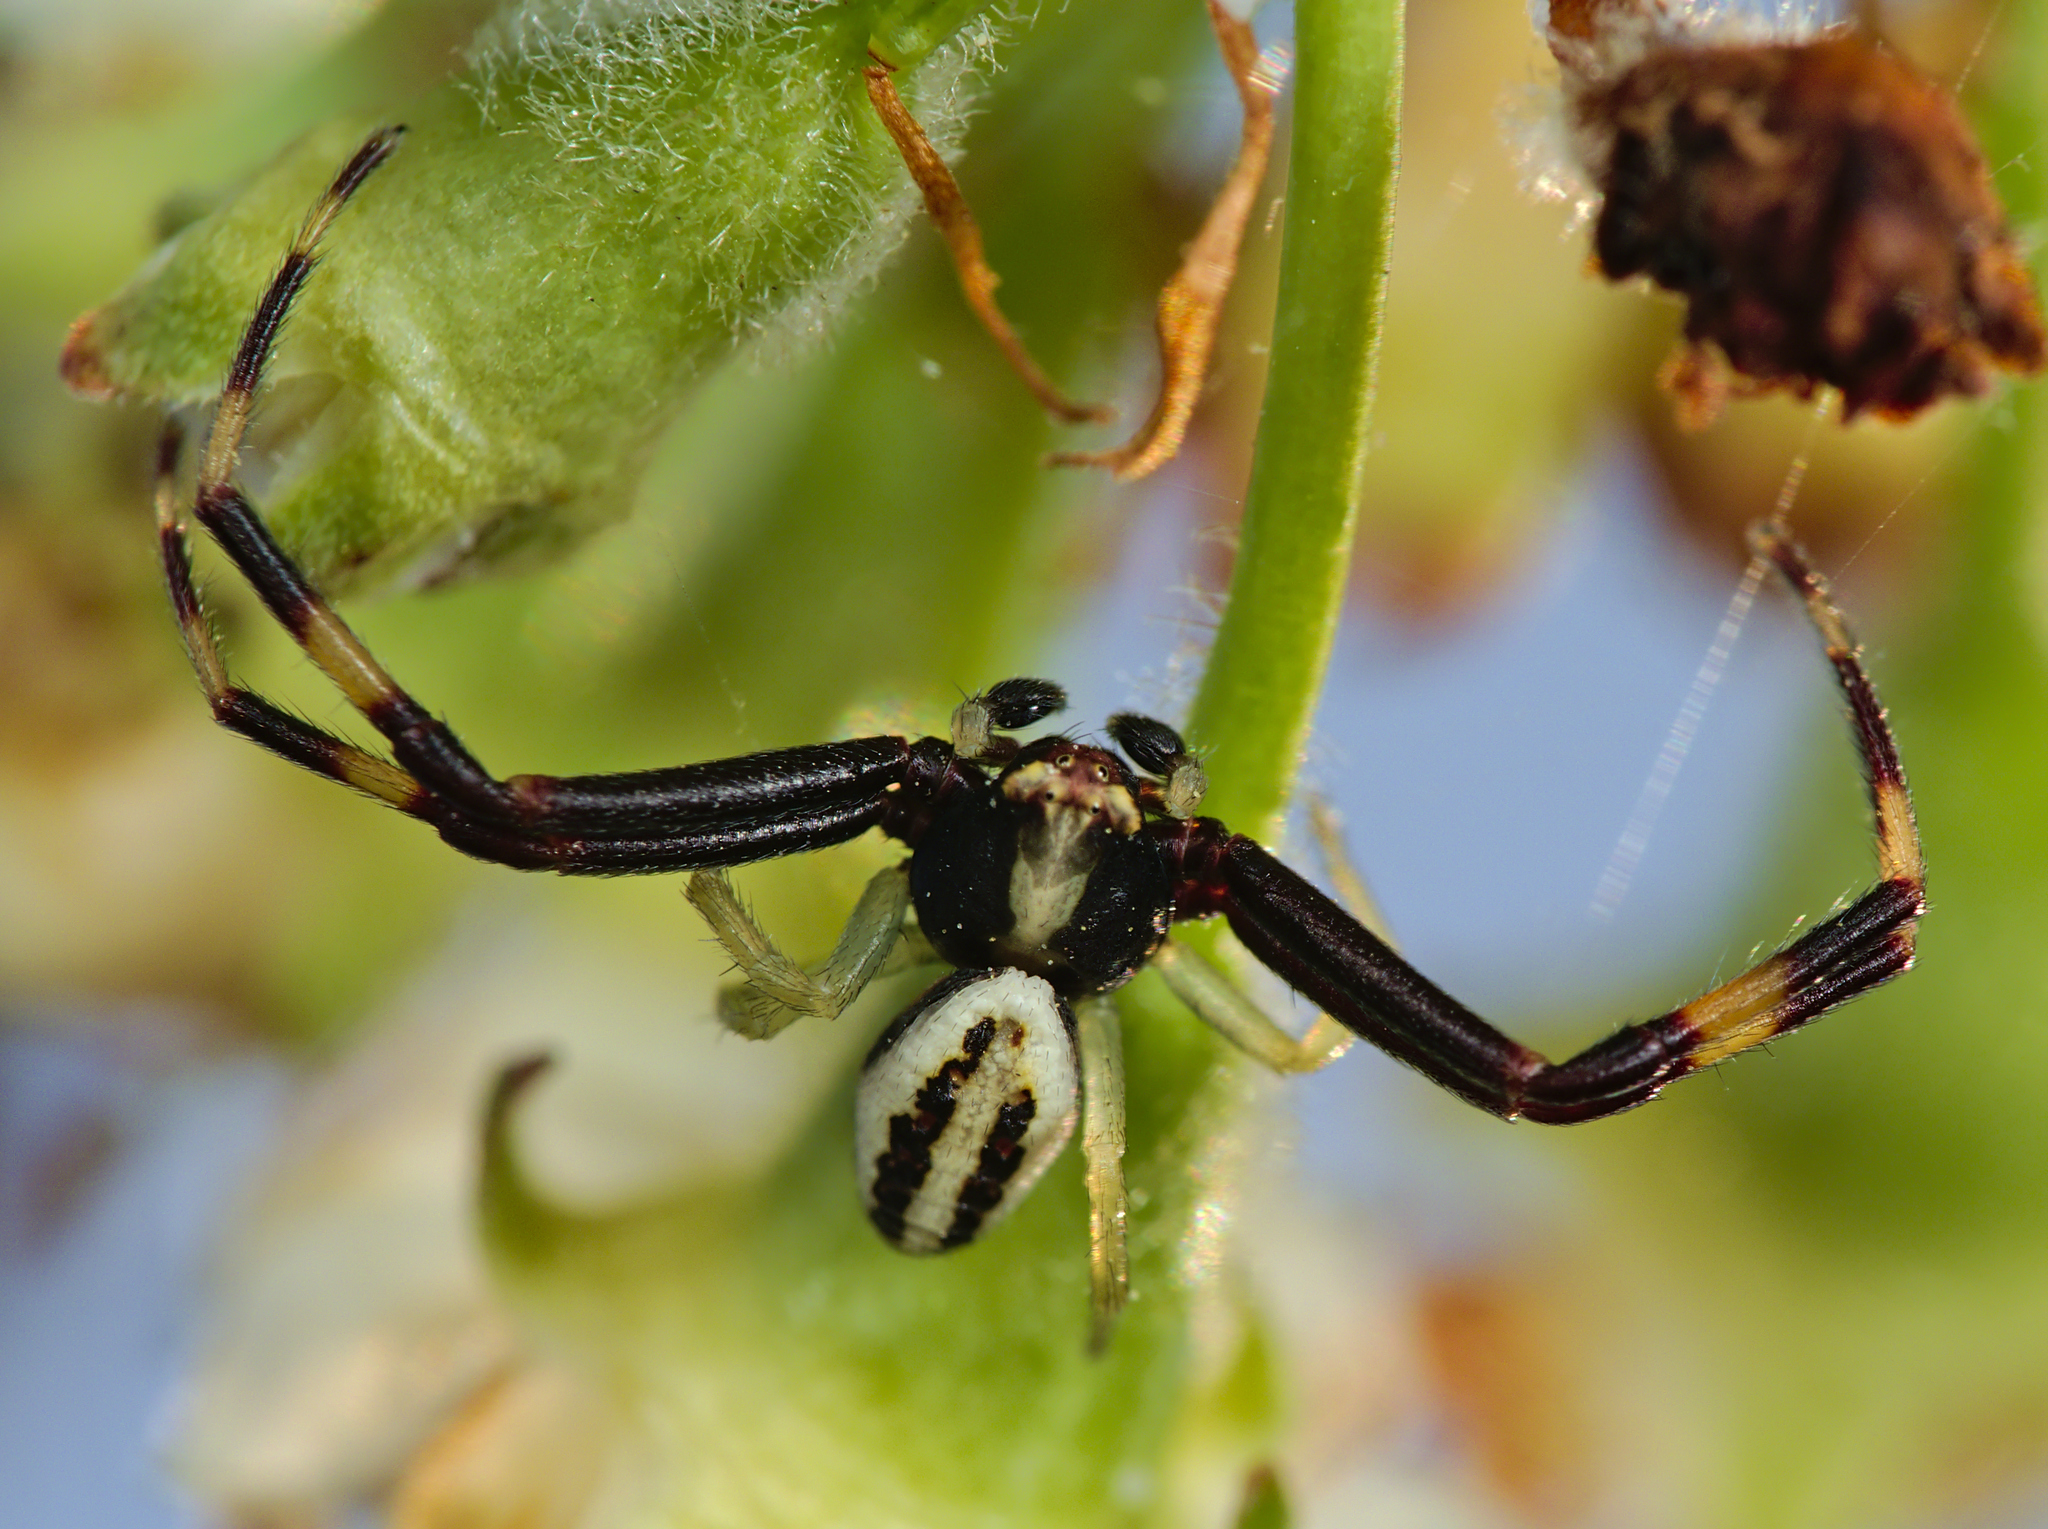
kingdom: Animalia
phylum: Arthropoda
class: Arachnida
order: Araneae
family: Thomisidae
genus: Misumena
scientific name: Misumena vatia
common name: Goldenrod crab spider
